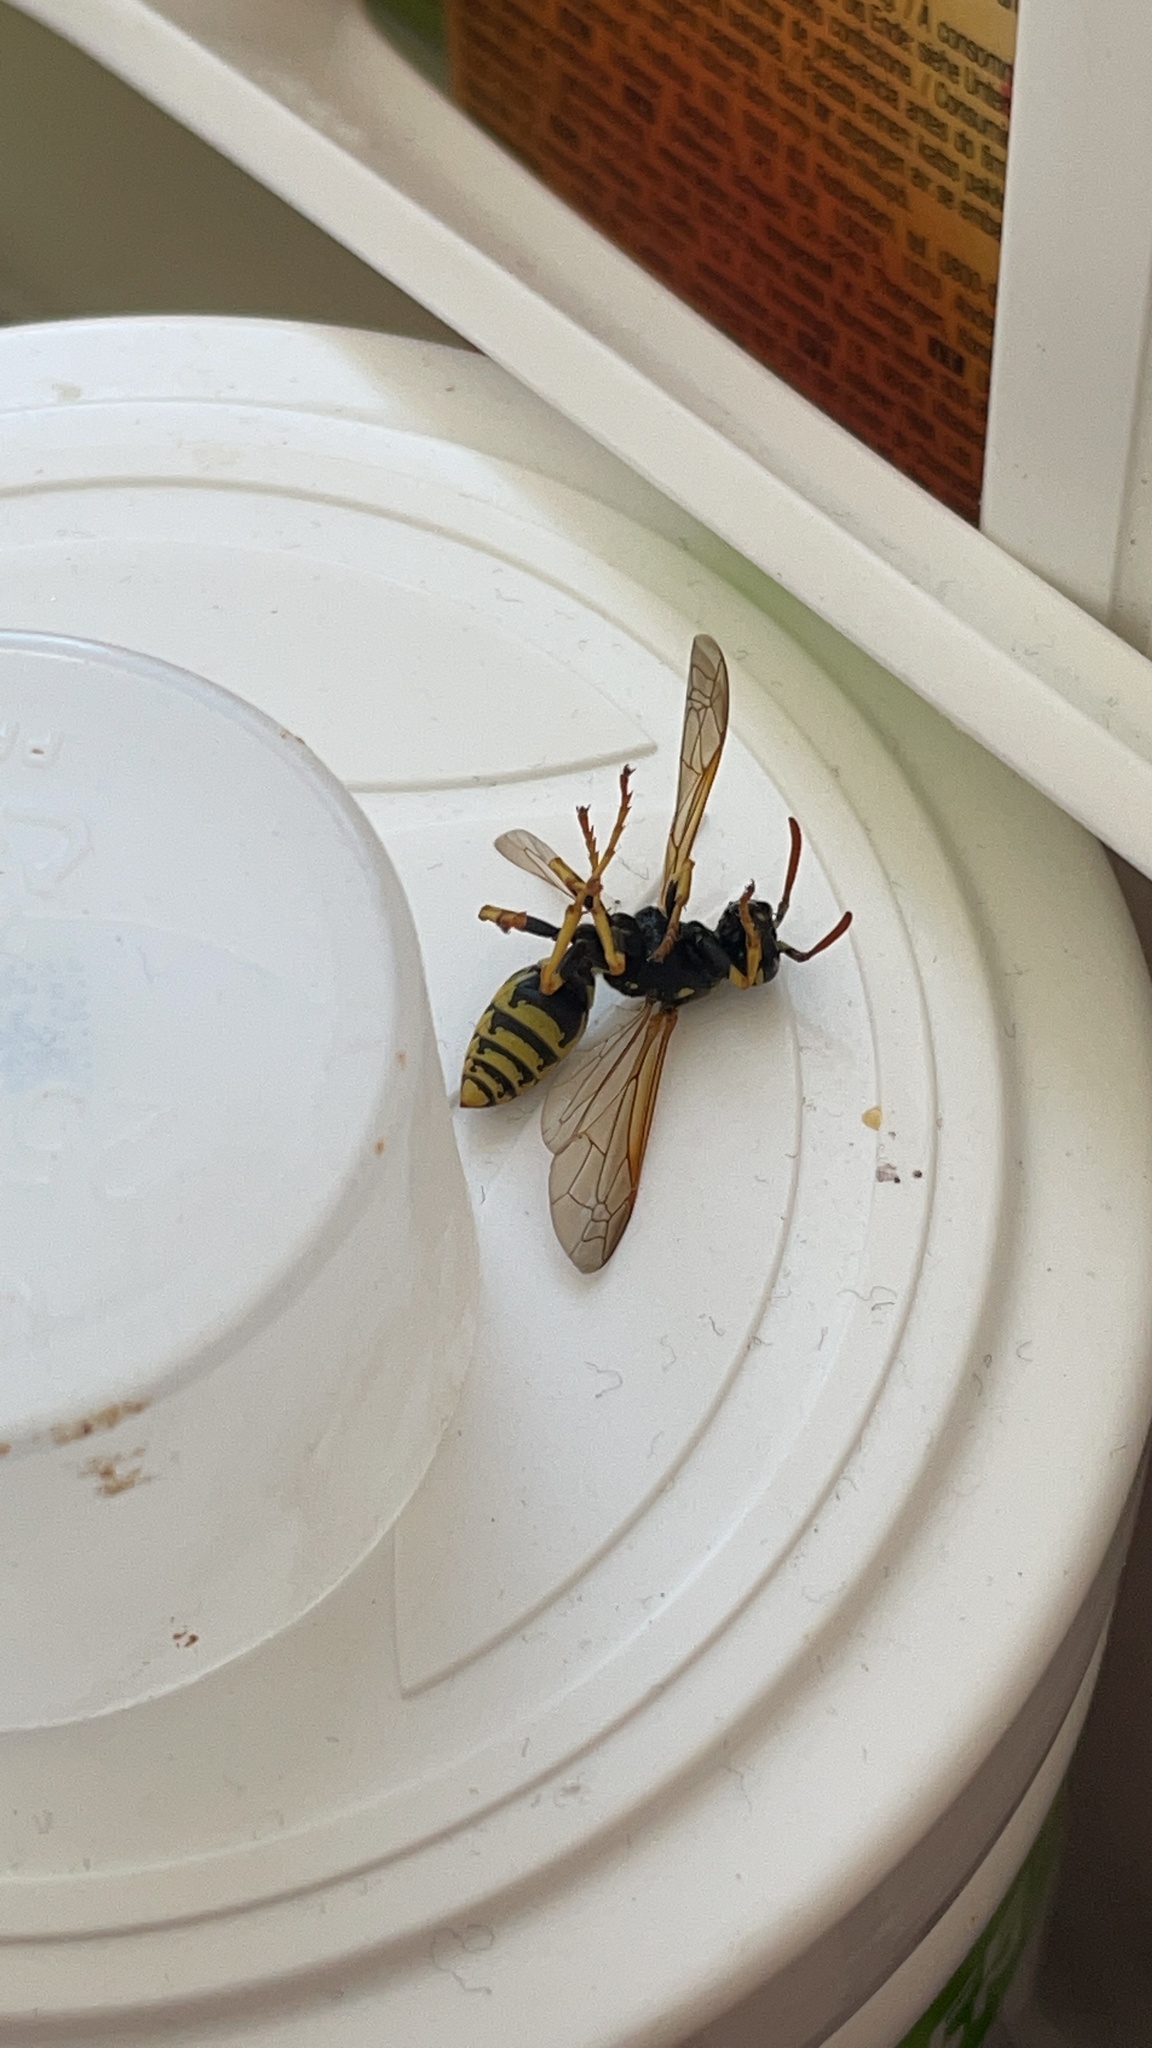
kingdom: Animalia
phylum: Arthropoda
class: Insecta
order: Hymenoptera
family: Eumenidae
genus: Polistes
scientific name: Polistes dominula
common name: Paper wasp
